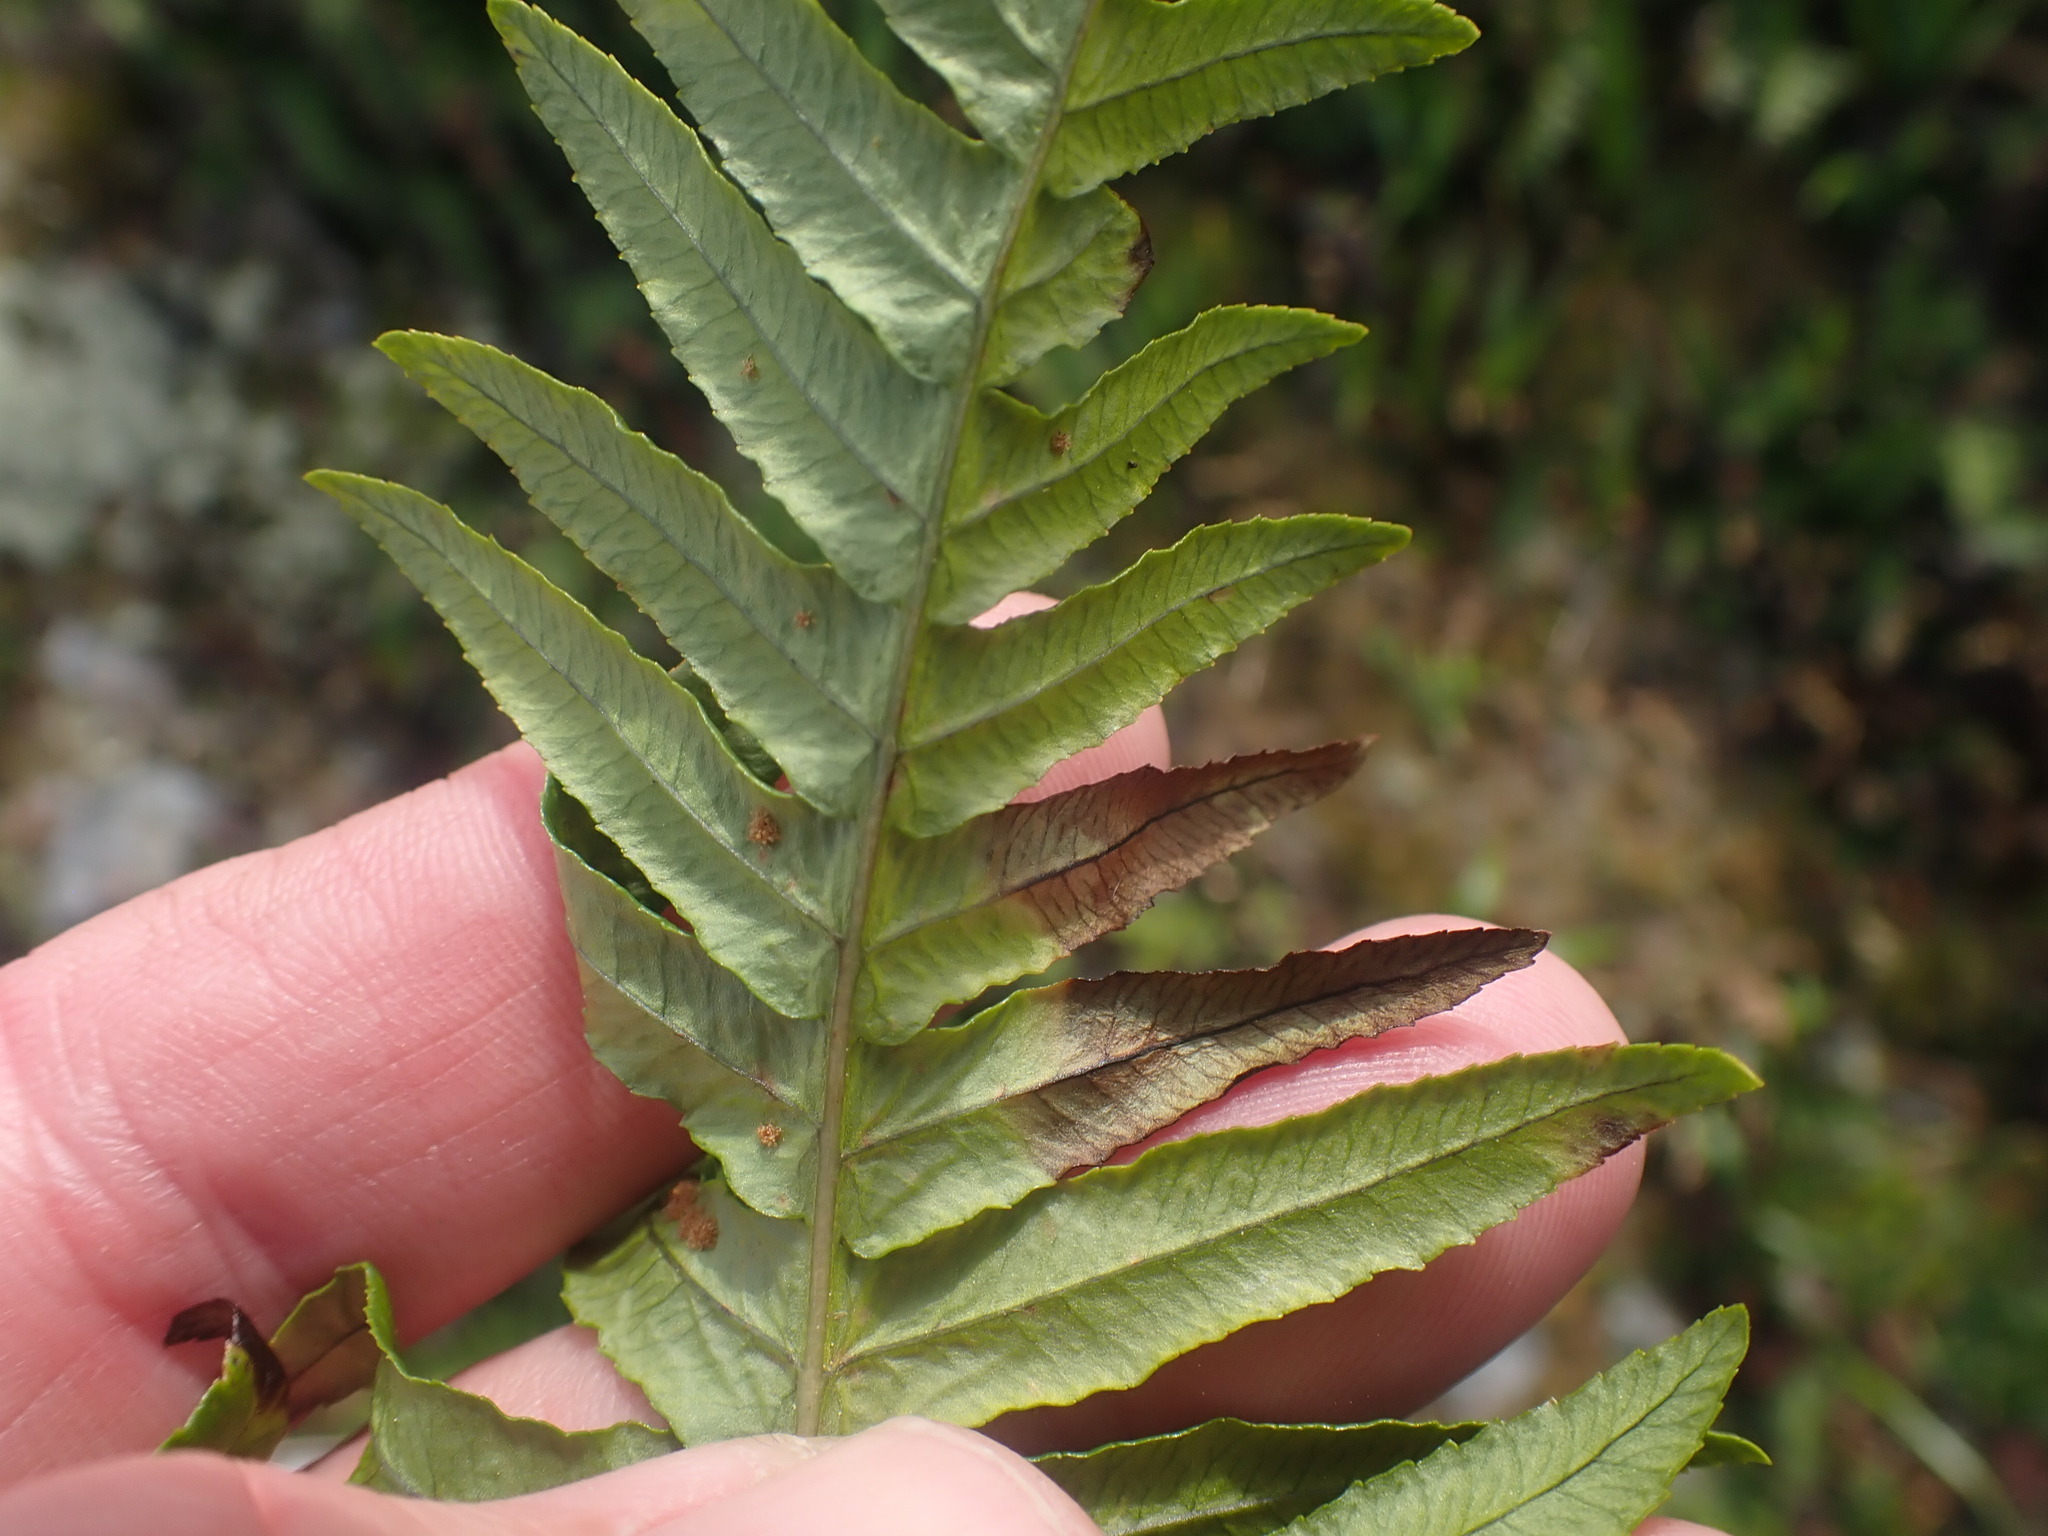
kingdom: Plantae
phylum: Tracheophyta
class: Polypodiopsida
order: Polypodiales
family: Polypodiaceae
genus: Polypodium
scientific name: Polypodium glycyrrhiza
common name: Licorice fern
